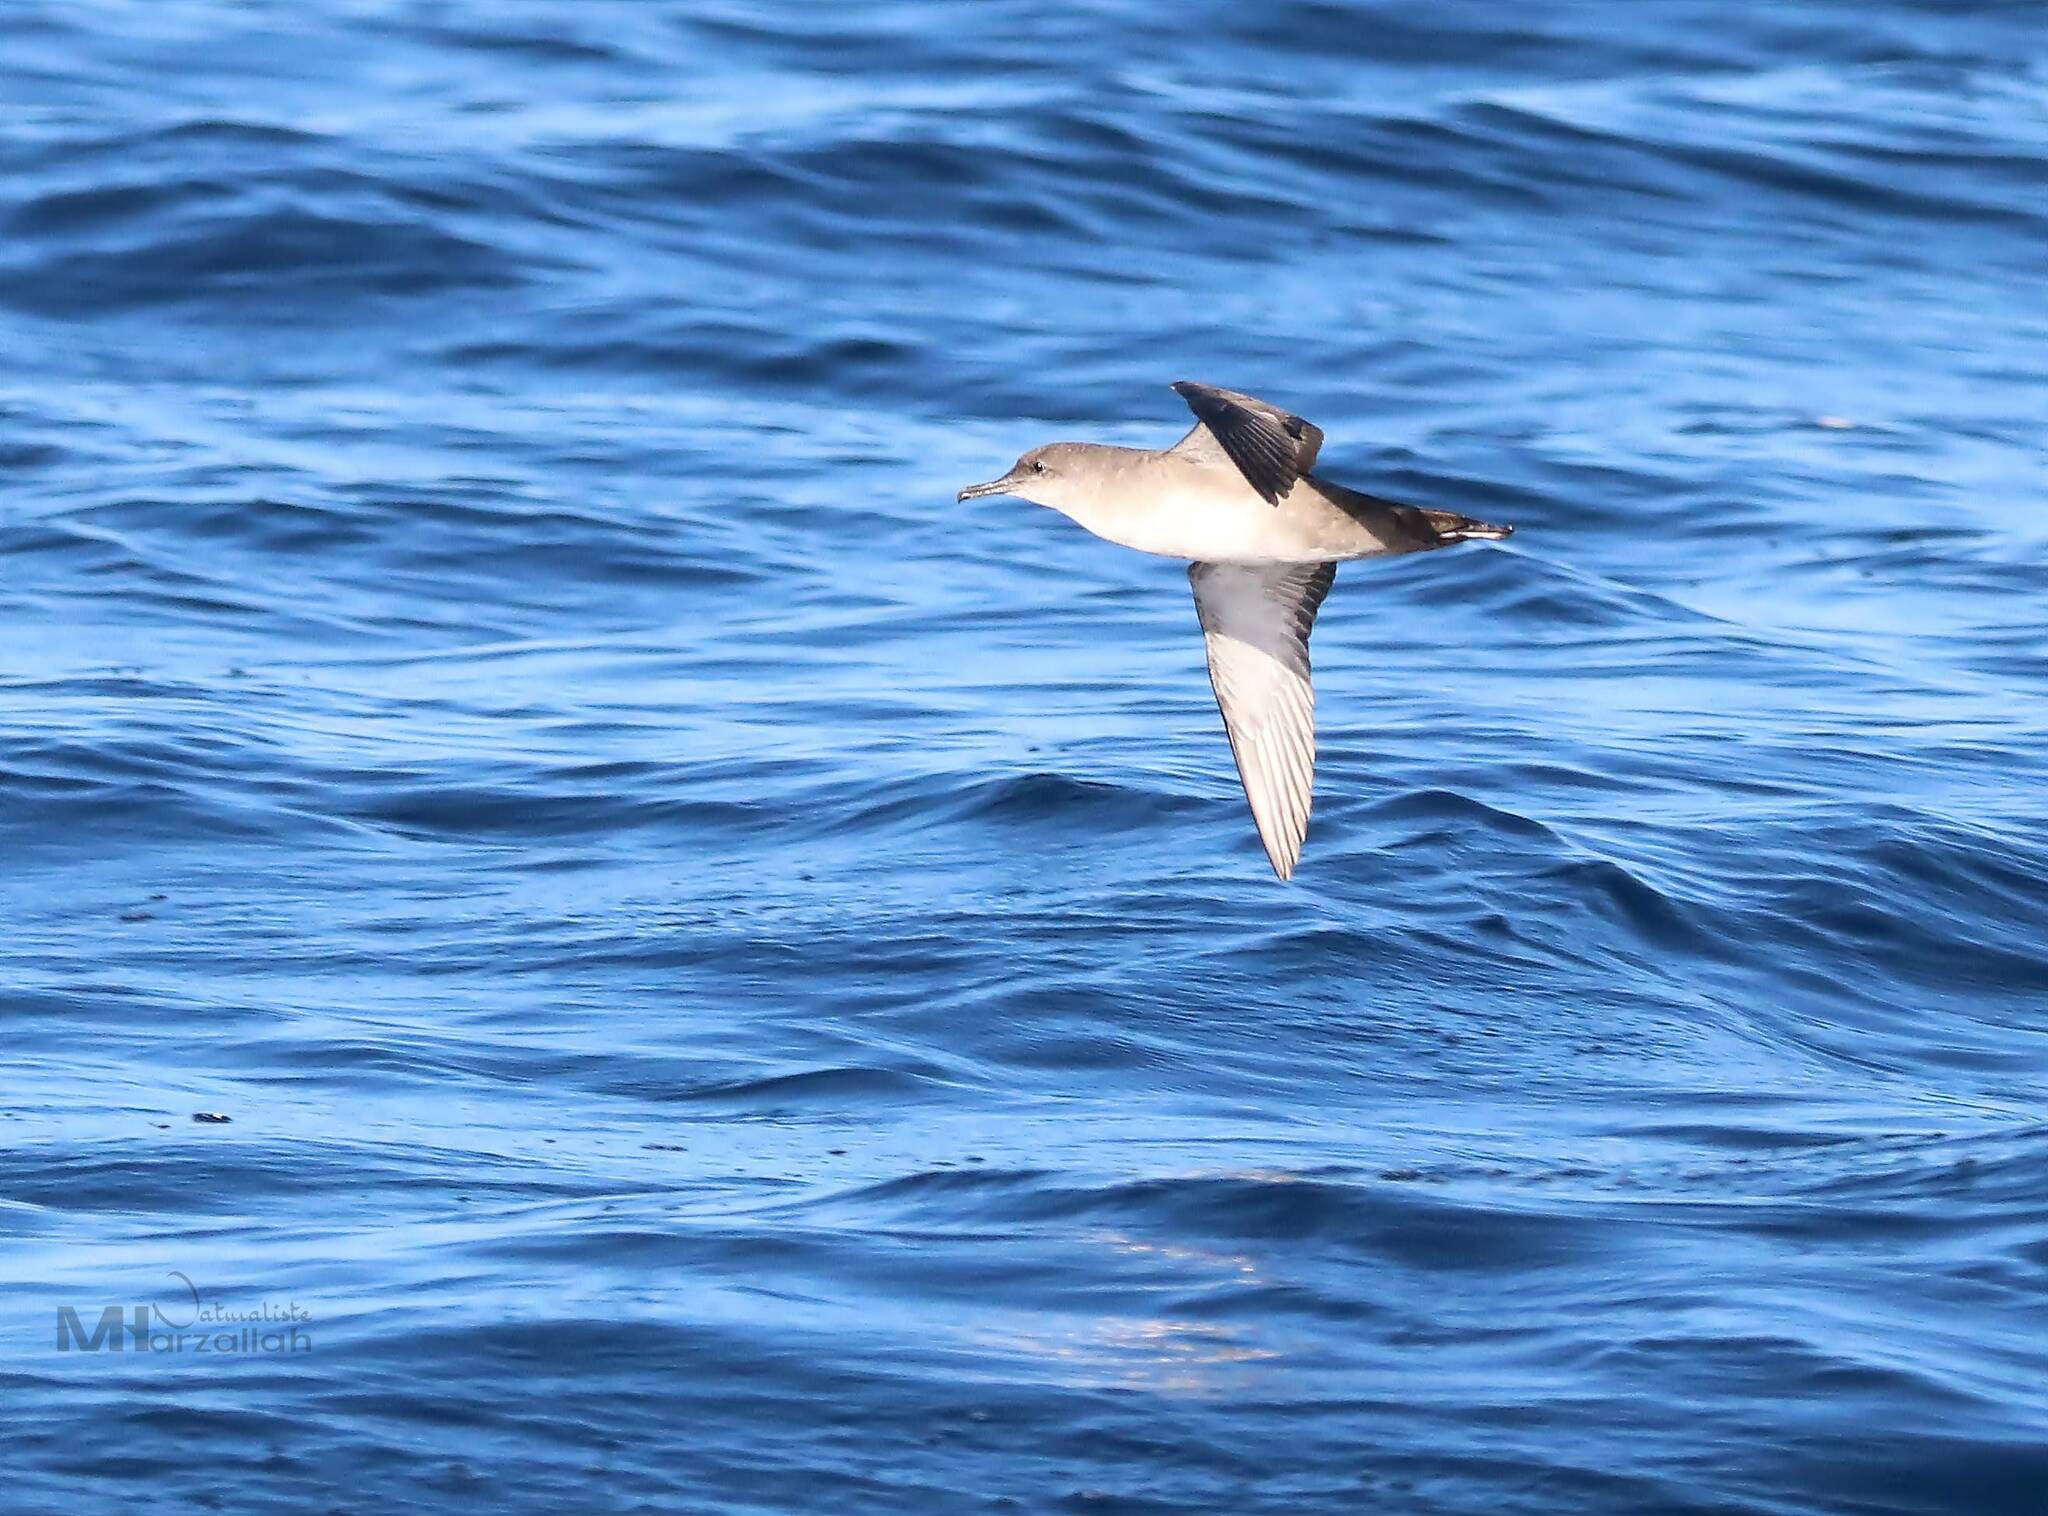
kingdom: Animalia
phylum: Chordata
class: Aves
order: Procellariiformes
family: Procellariidae
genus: Puffinus
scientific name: Puffinus mauretanicus
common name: Balearic shearwater
